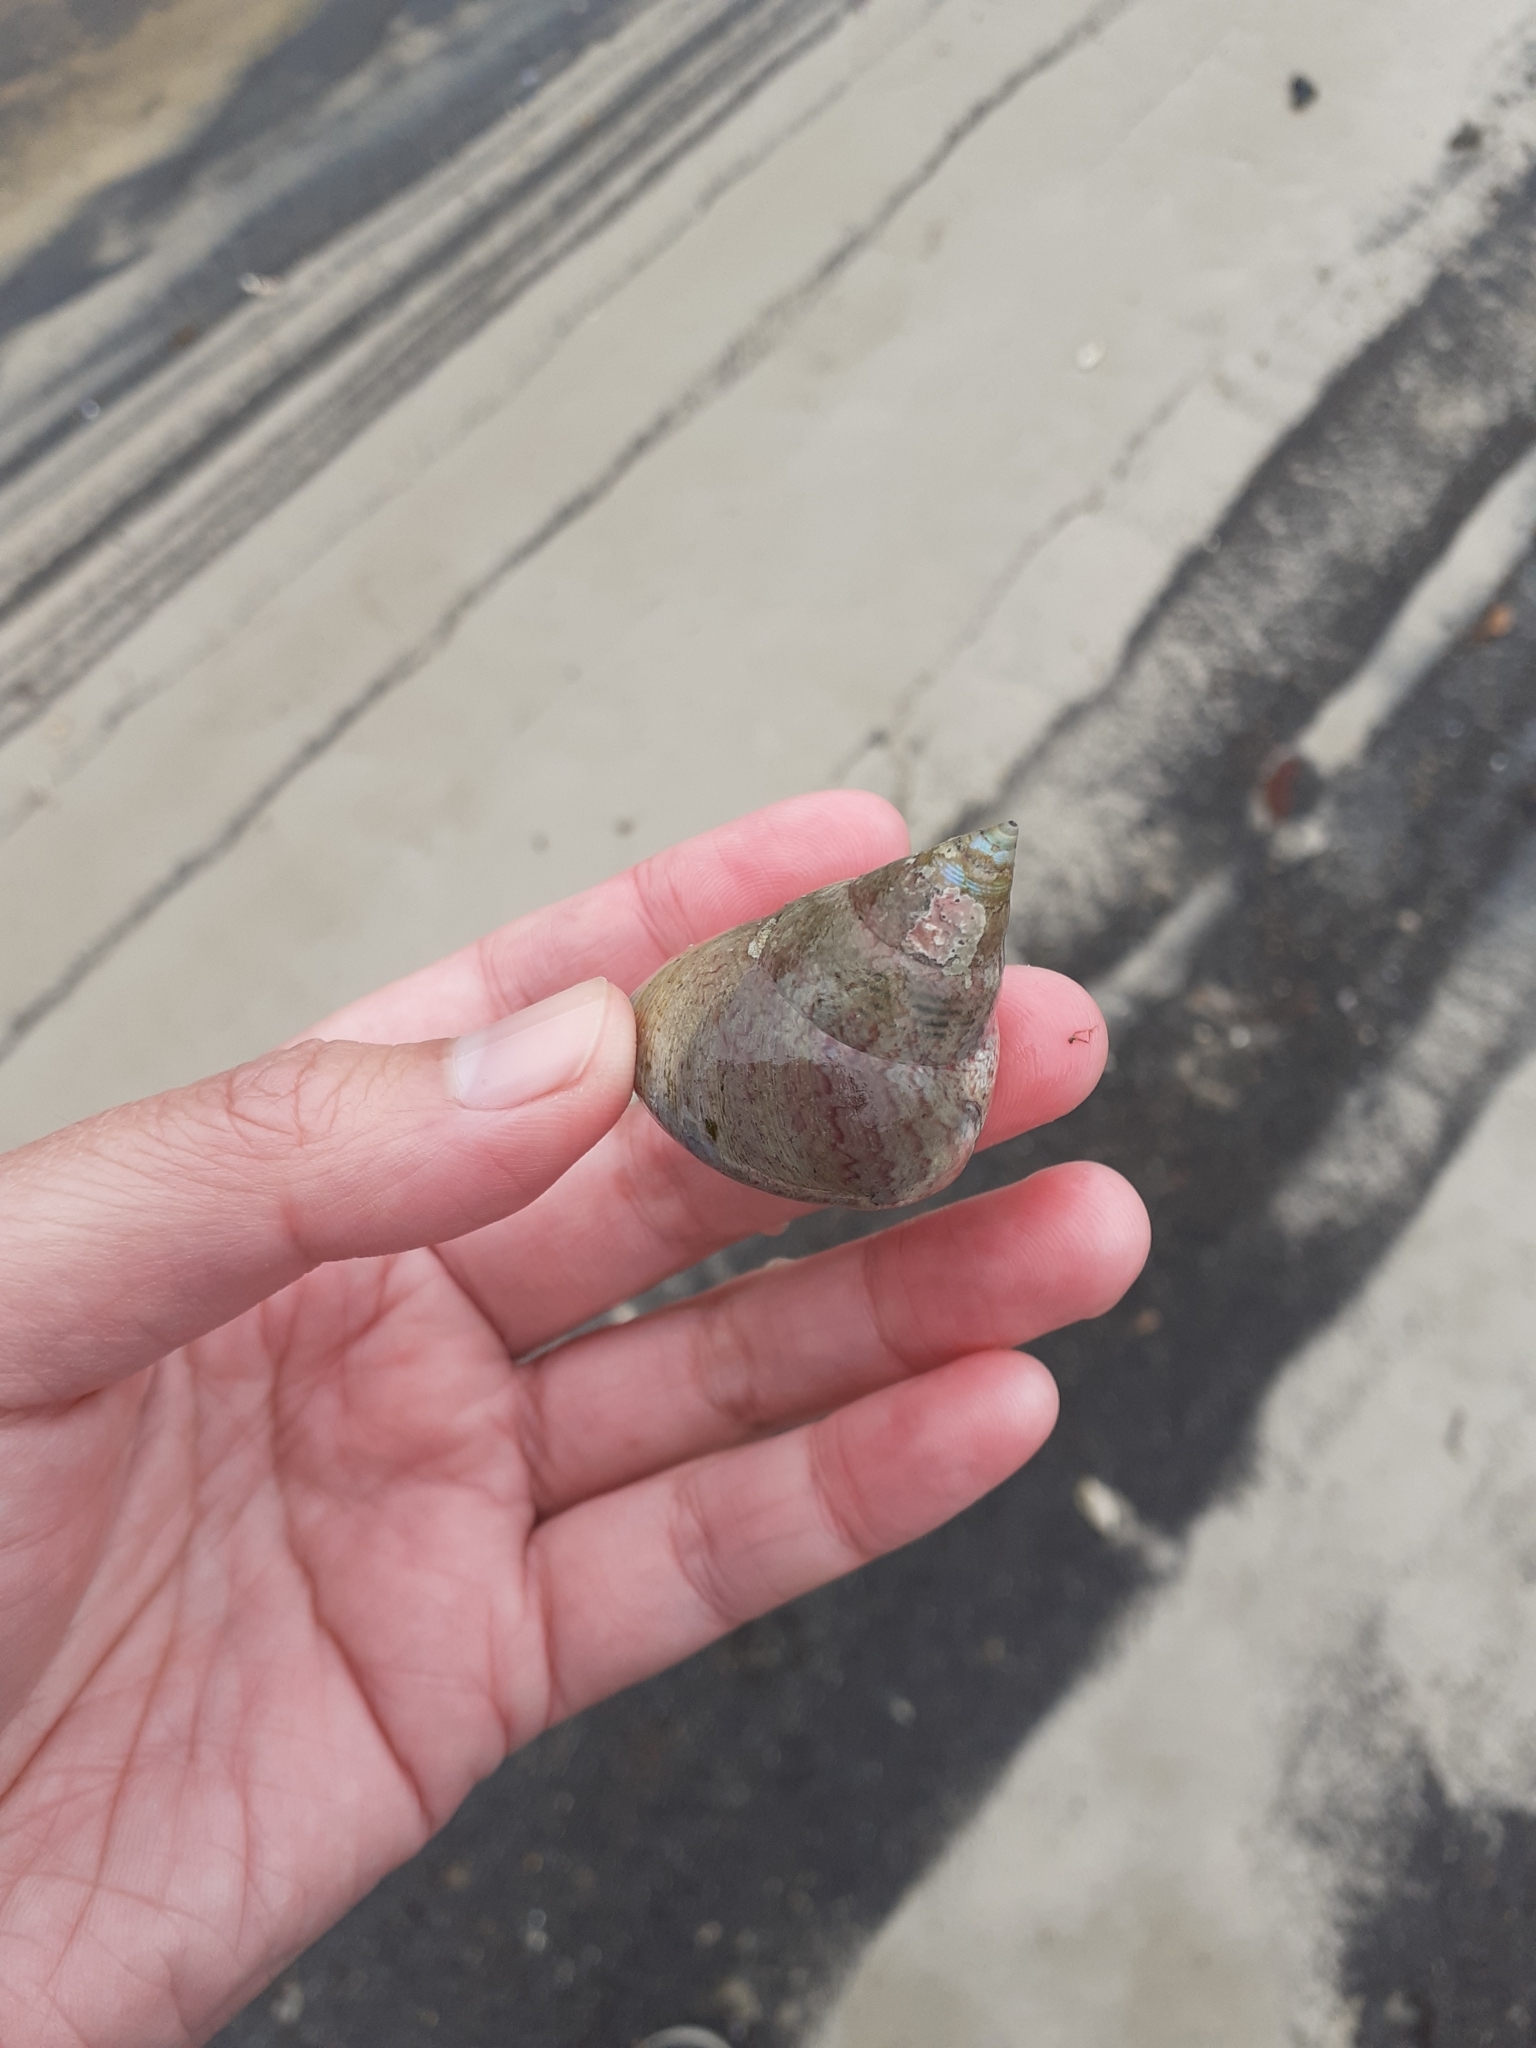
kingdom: Animalia
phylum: Mollusca
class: Gastropoda
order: Trochida
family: Trochidae
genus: Cantharidus
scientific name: Cantharidus opalus
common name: Opal jewel topsnail
